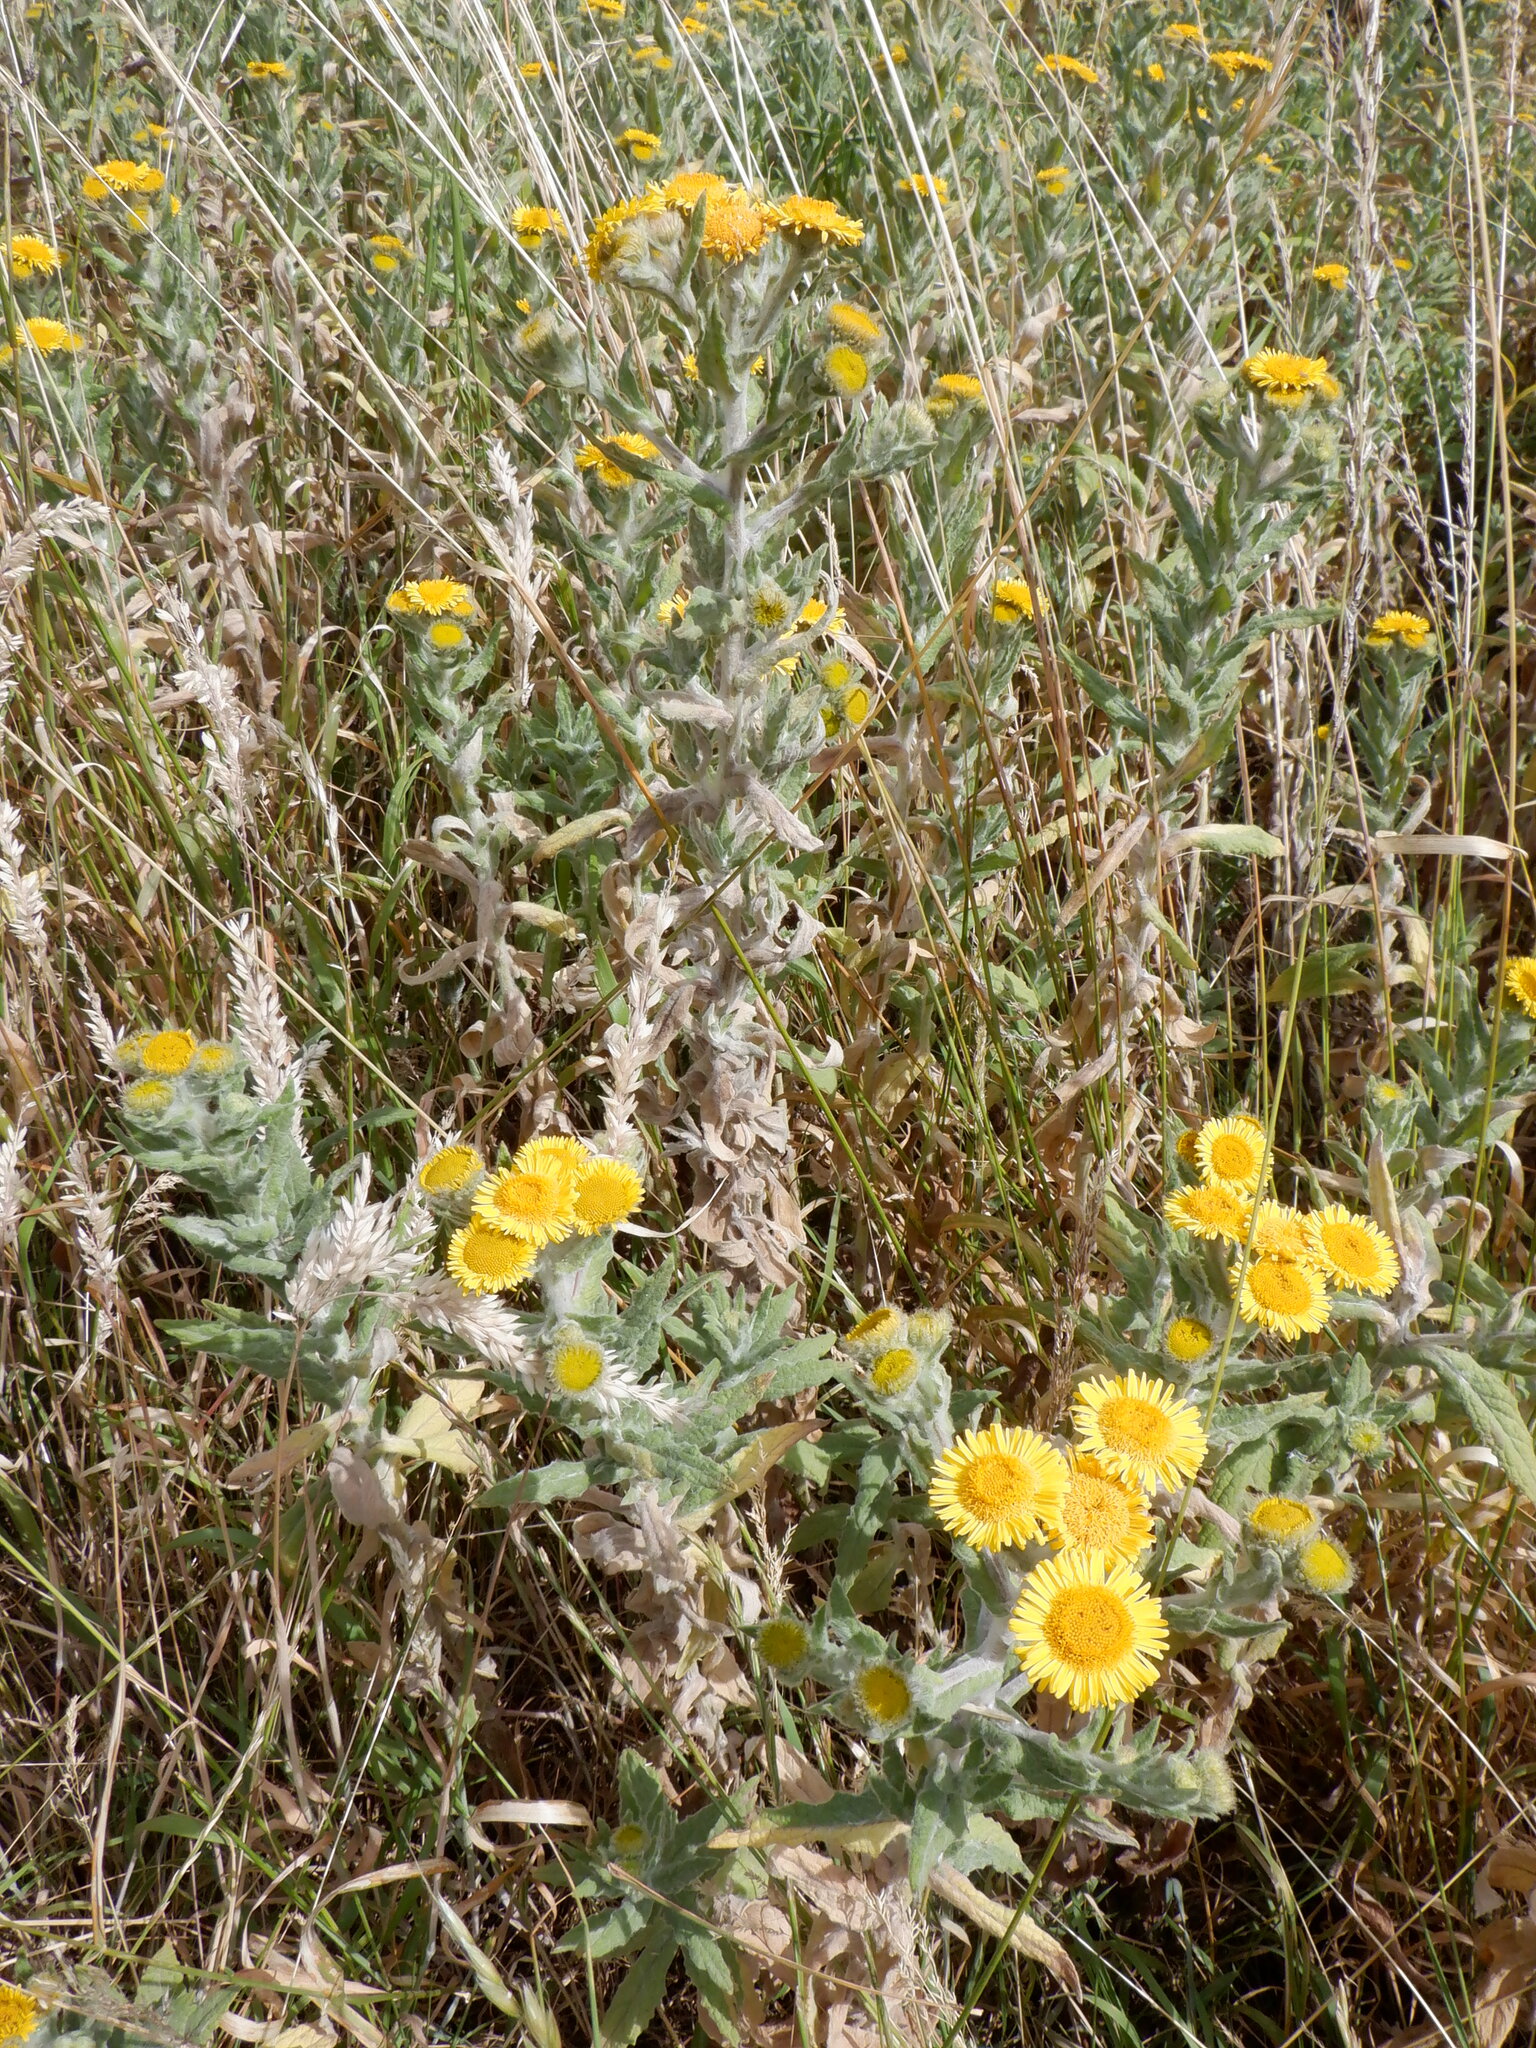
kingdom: Plantae
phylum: Tracheophyta
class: Magnoliopsida
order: Asterales
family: Asteraceae
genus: Pulicaria
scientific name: Pulicaria dysenterica
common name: Common fleabane
